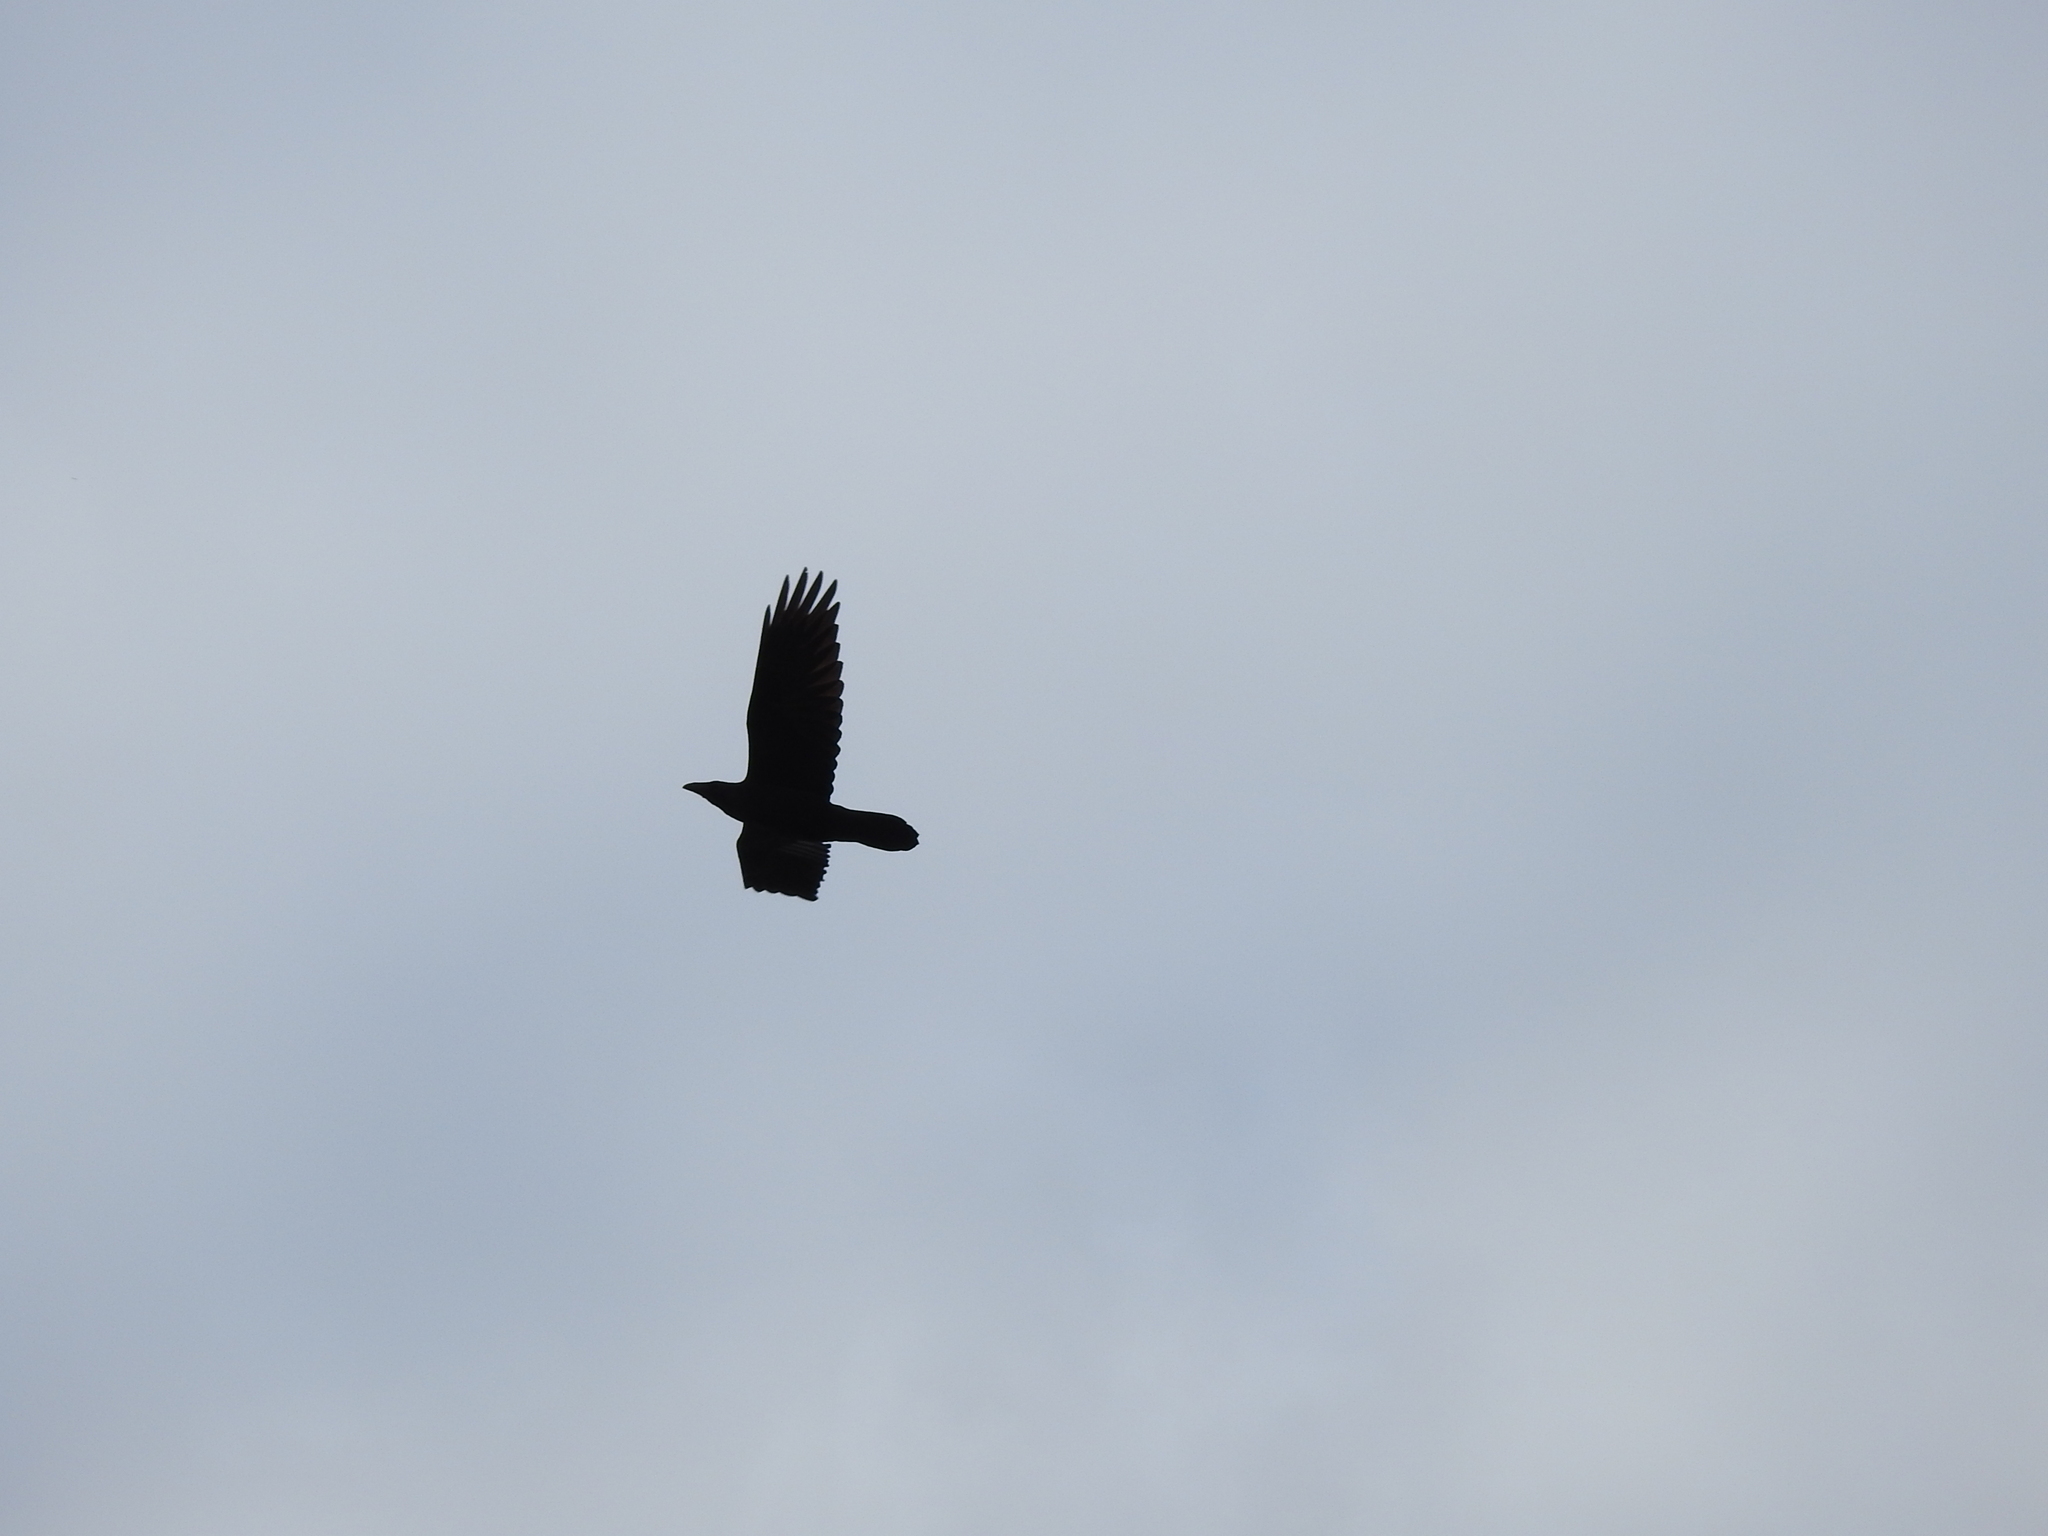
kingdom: Animalia
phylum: Chordata
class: Aves
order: Passeriformes
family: Corvidae
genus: Corvus
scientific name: Corvus corax
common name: Common raven
